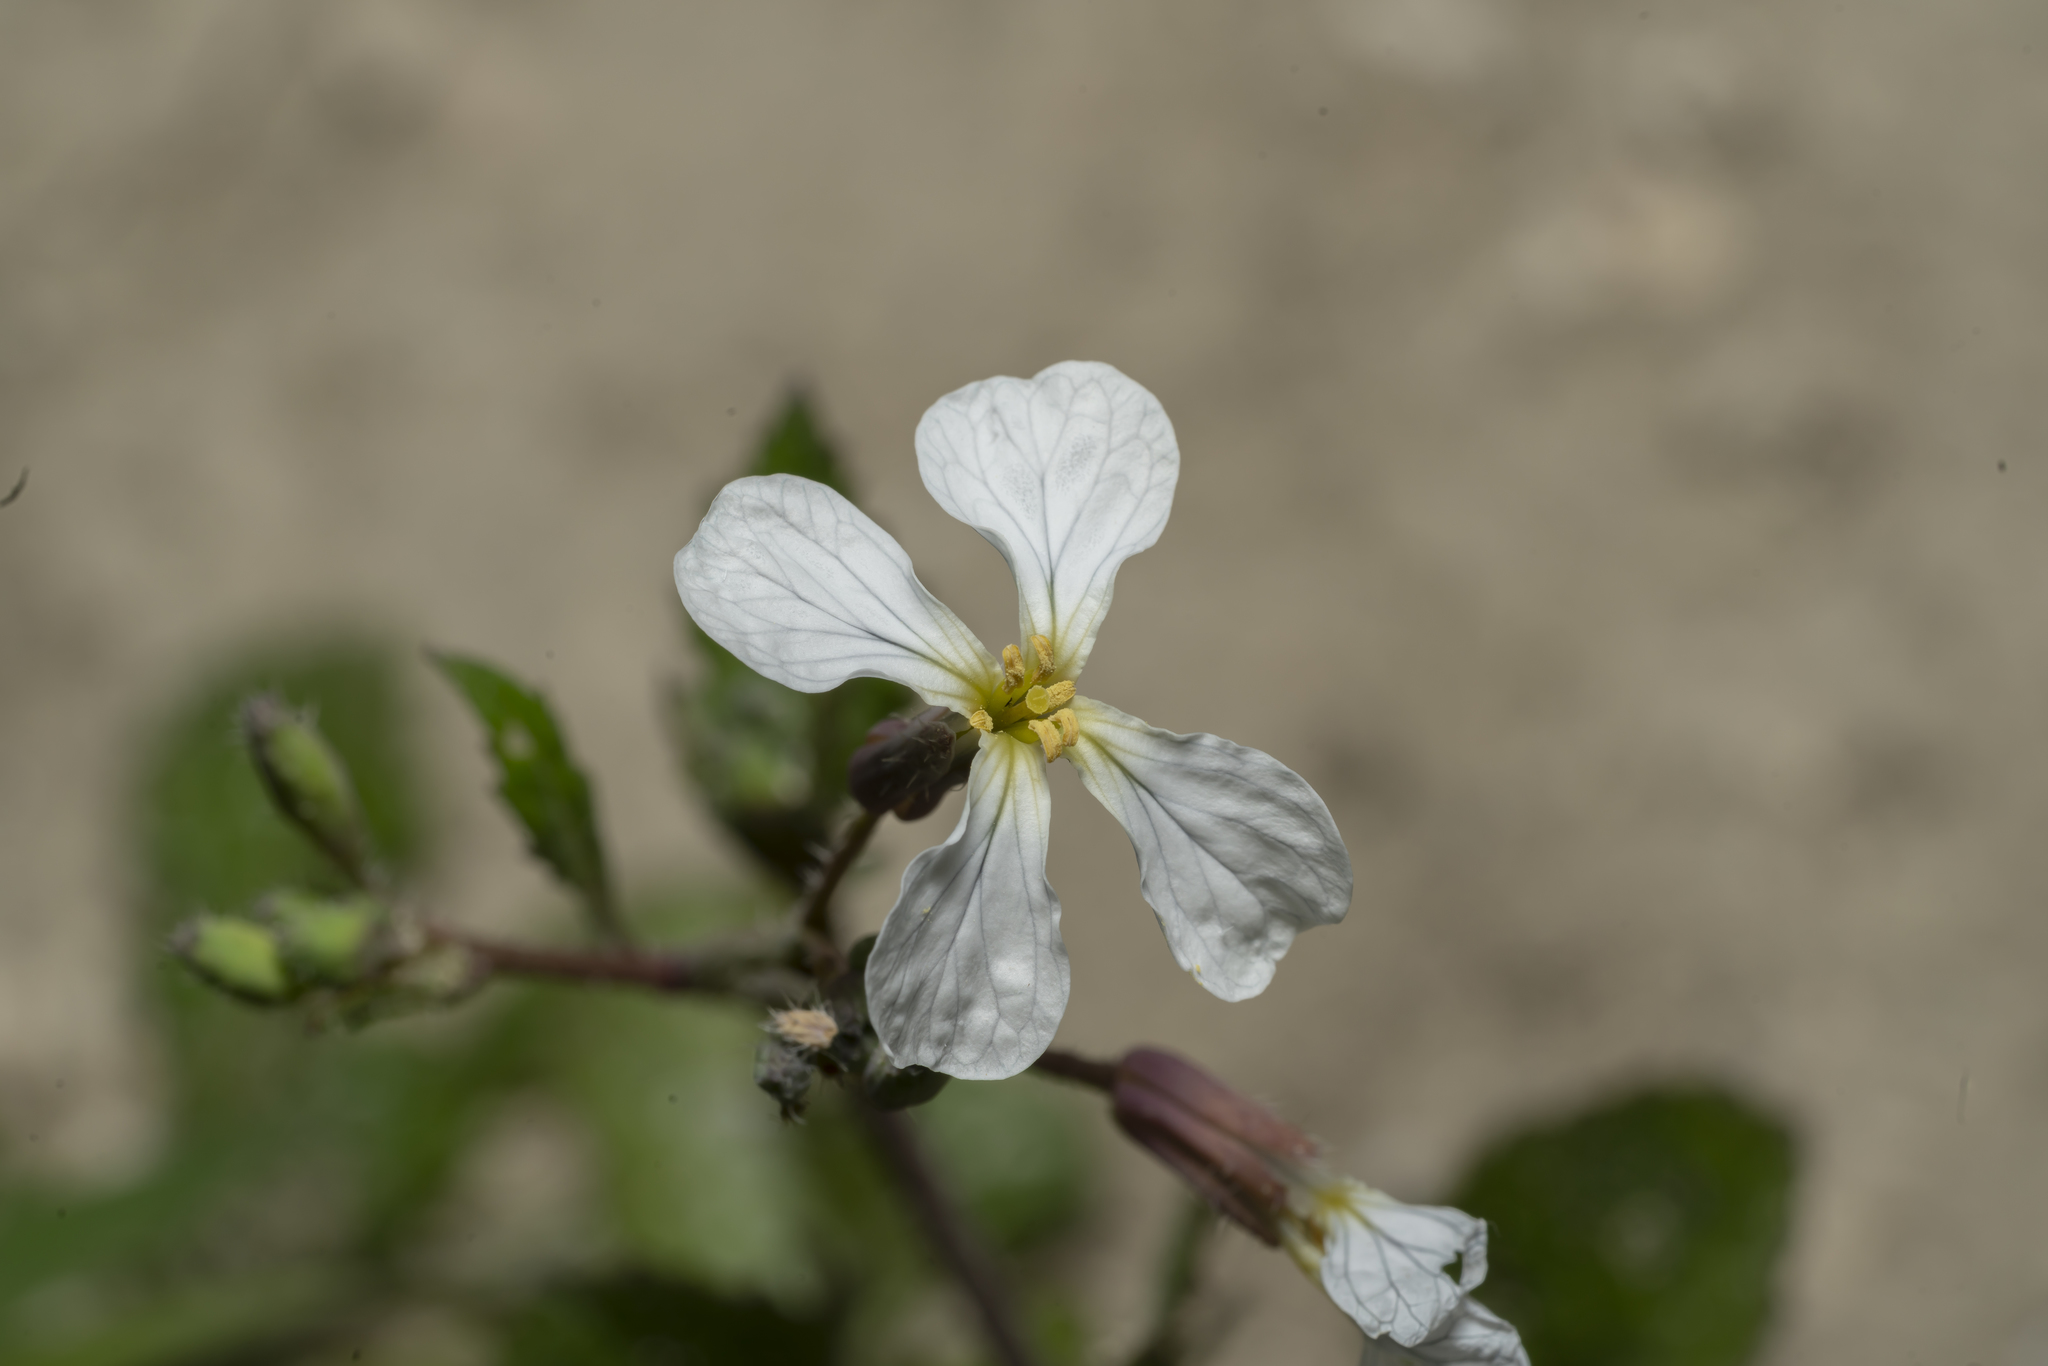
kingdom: Plantae
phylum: Tracheophyta
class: Magnoliopsida
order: Brassicales
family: Brassicaceae
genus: Raphanus
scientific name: Raphanus raphanistrum
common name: Wild radish
